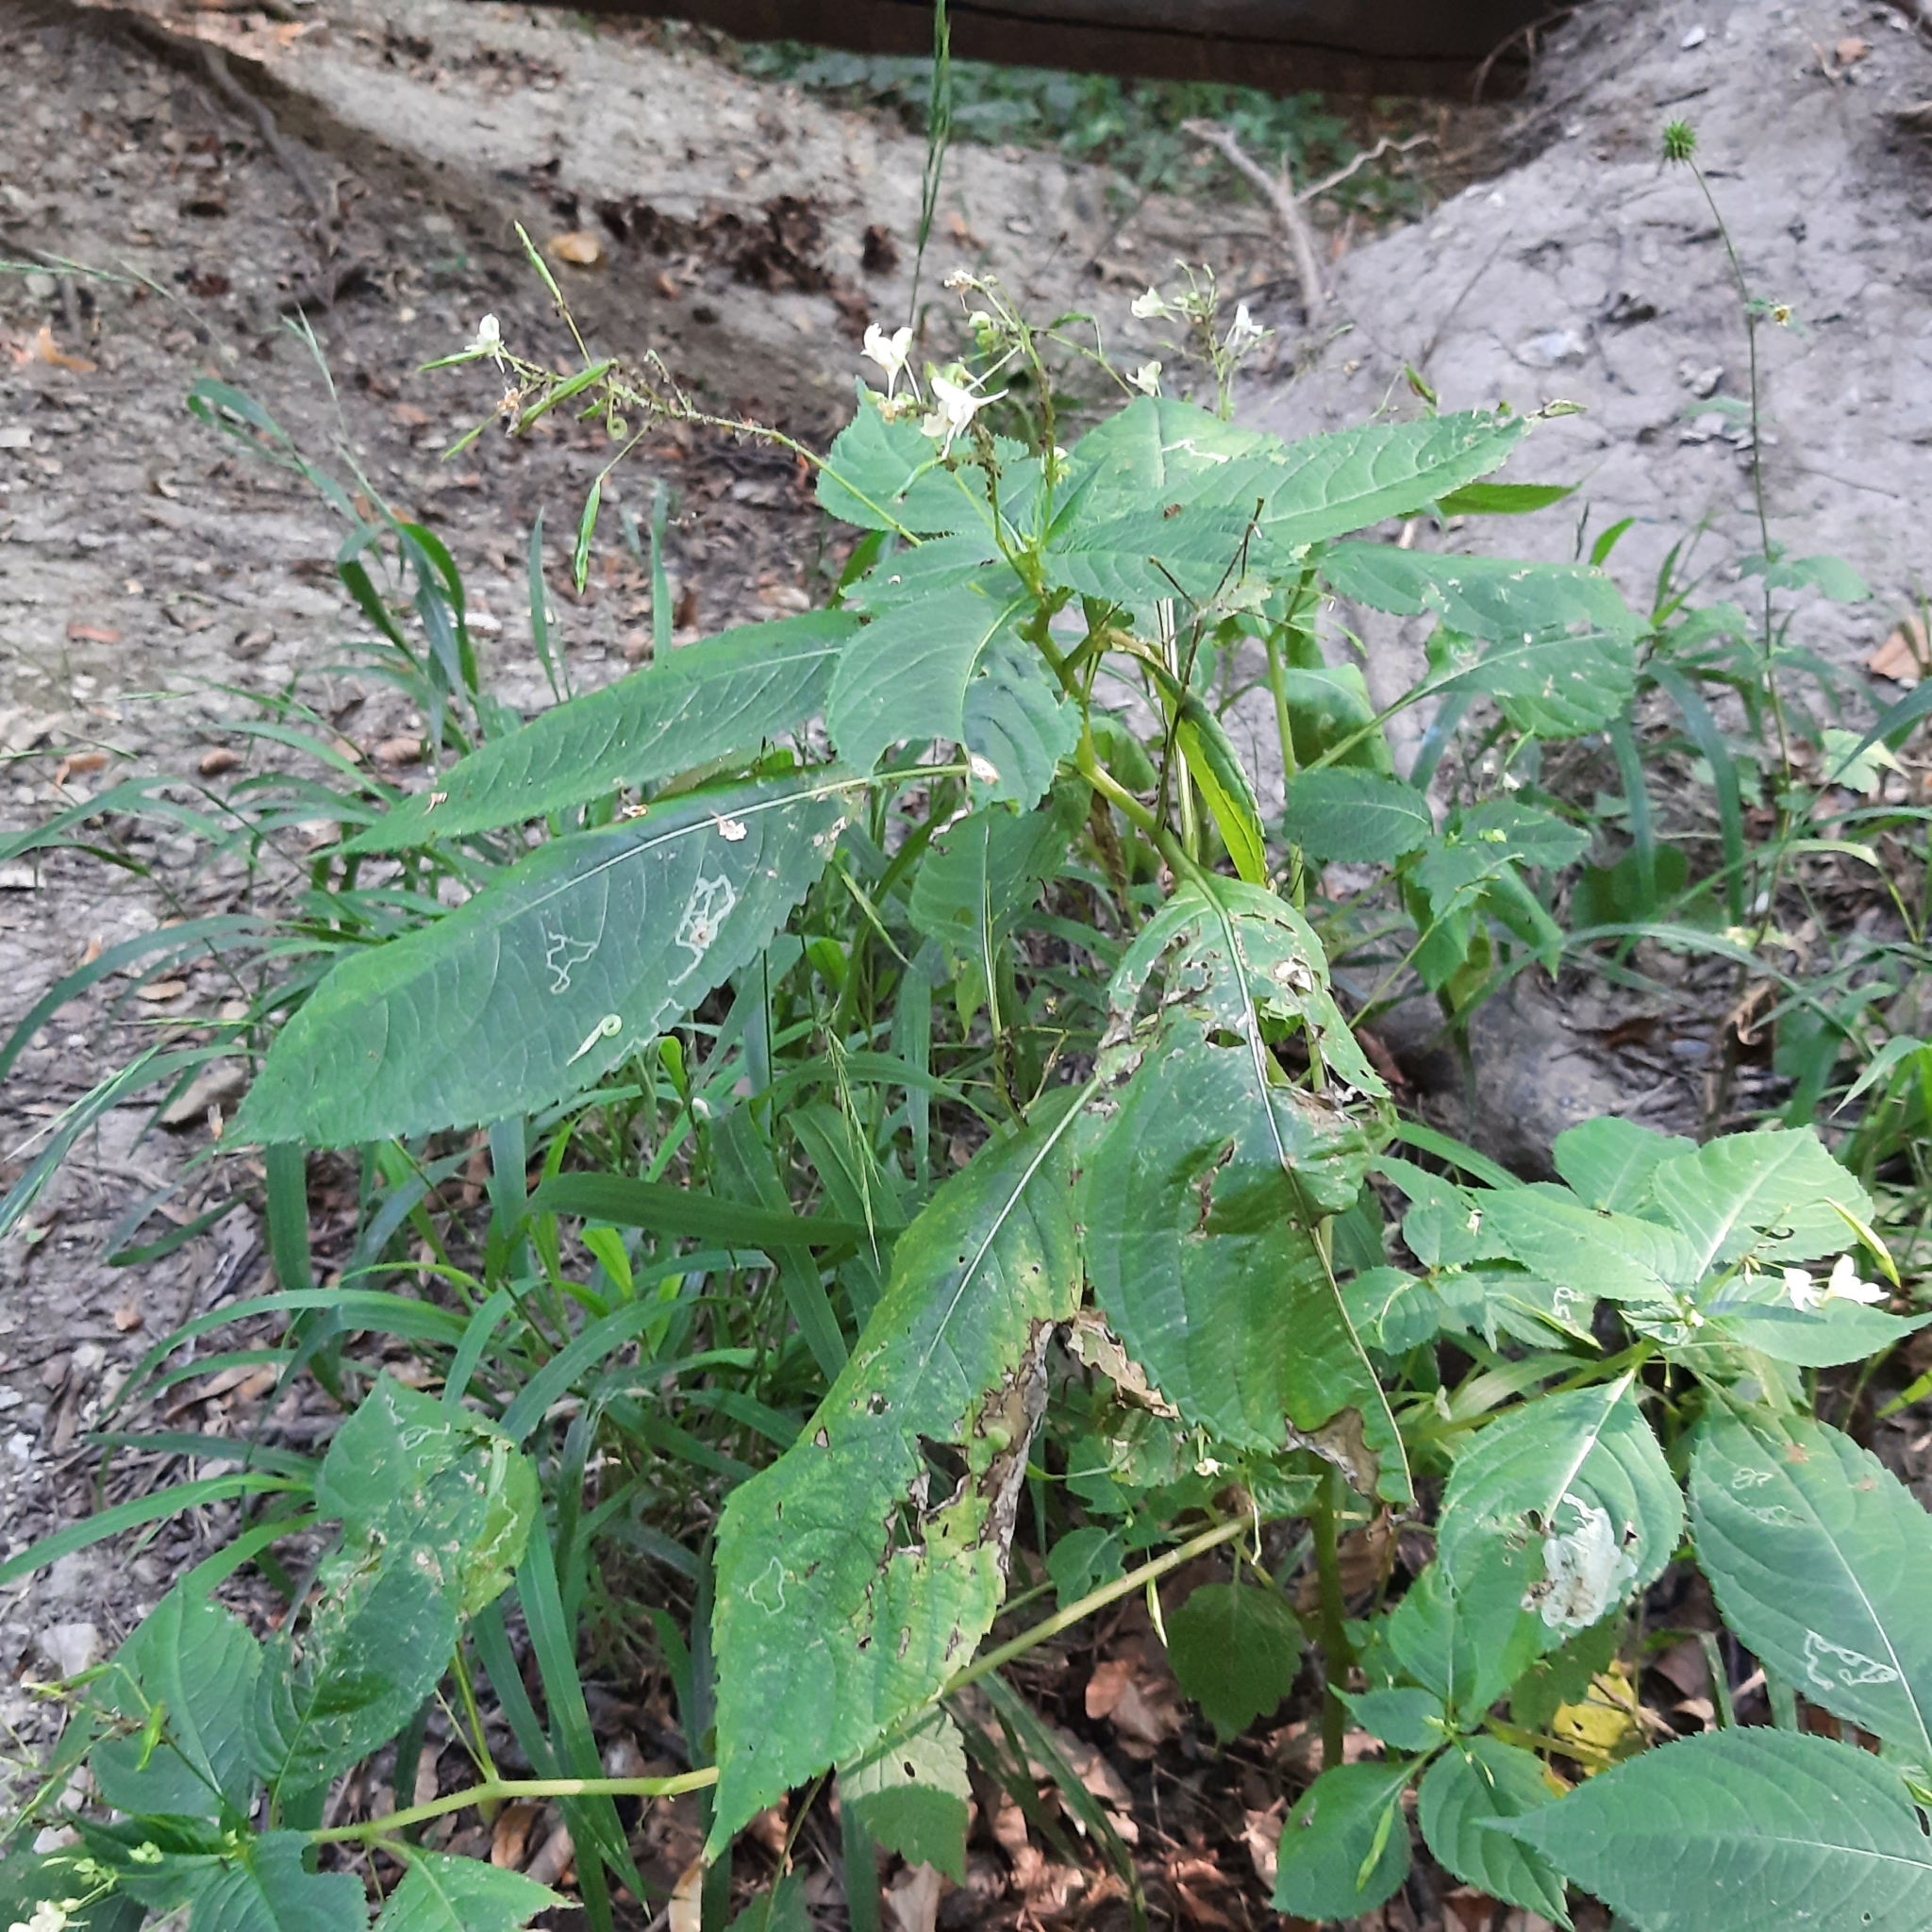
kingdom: Plantae
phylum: Tracheophyta
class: Magnoliopsida
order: Ericales
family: Balsaminaceae
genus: Impatiens
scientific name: Impatiens parviflora
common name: Small balsam
